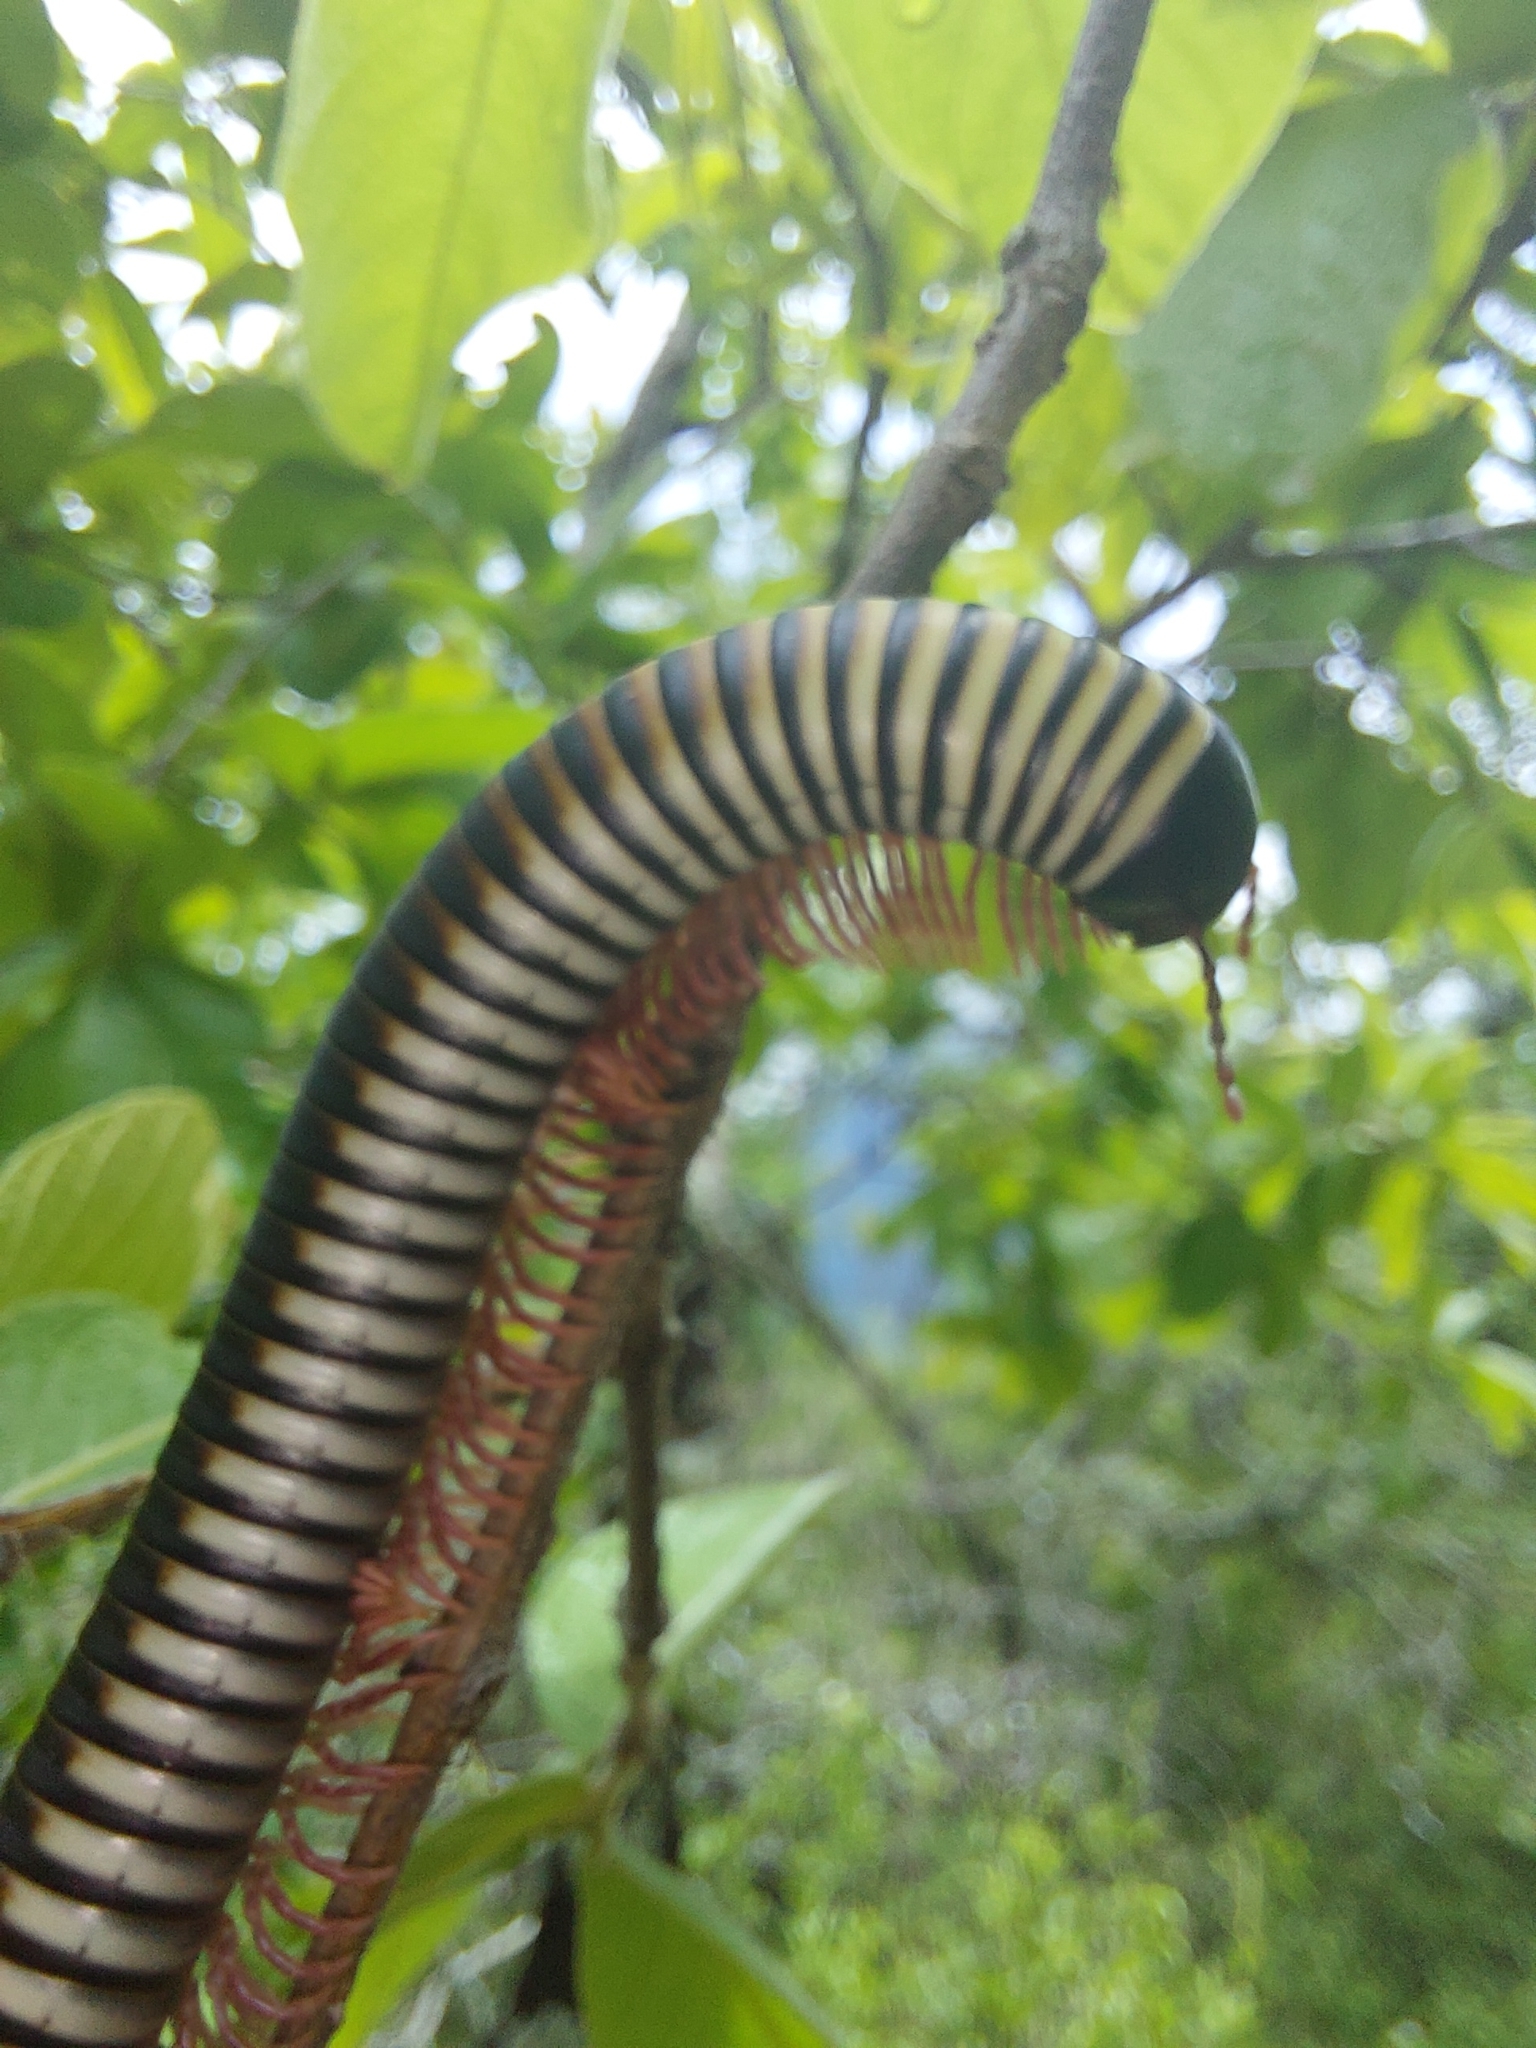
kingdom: Animalia
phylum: Arthropoda
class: Diplopoda
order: Spirostreptida
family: Spirostreptidae
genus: Doratogonus
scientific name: Doratogonus flavifilis
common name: Yellow-banded black millipede
